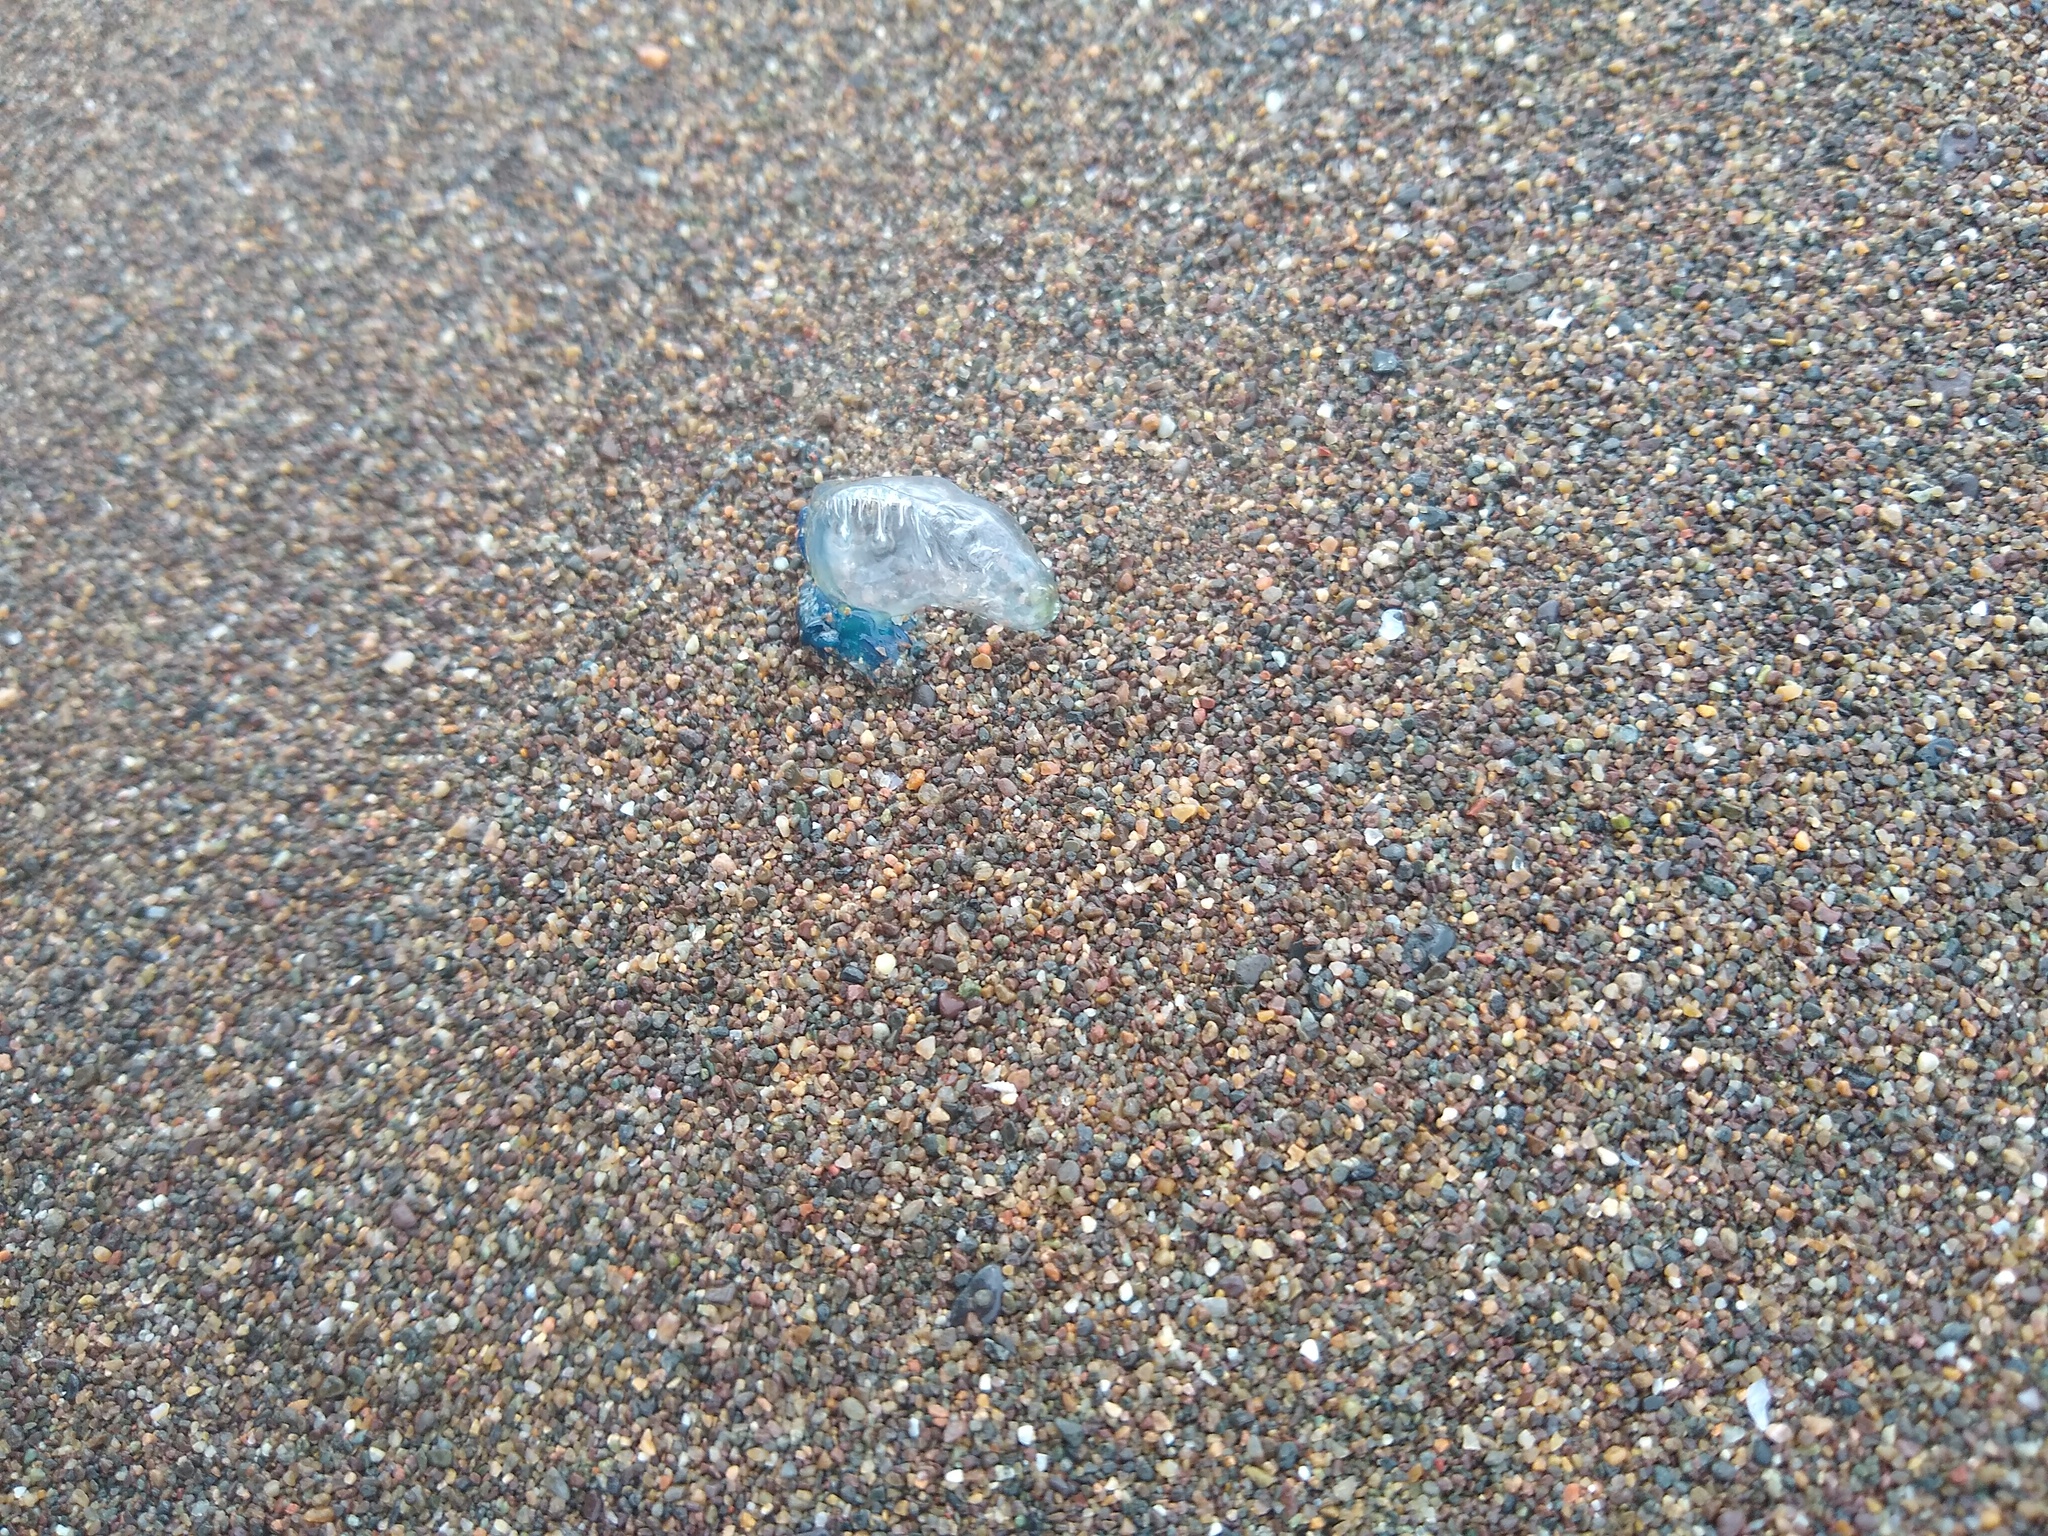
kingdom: Animalia
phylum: Cnidaria
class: Hydrozoa
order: Siphonophorae
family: Physaliidae
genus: Physalia
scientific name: Physalia physalis
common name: Portuguese man-of-war
